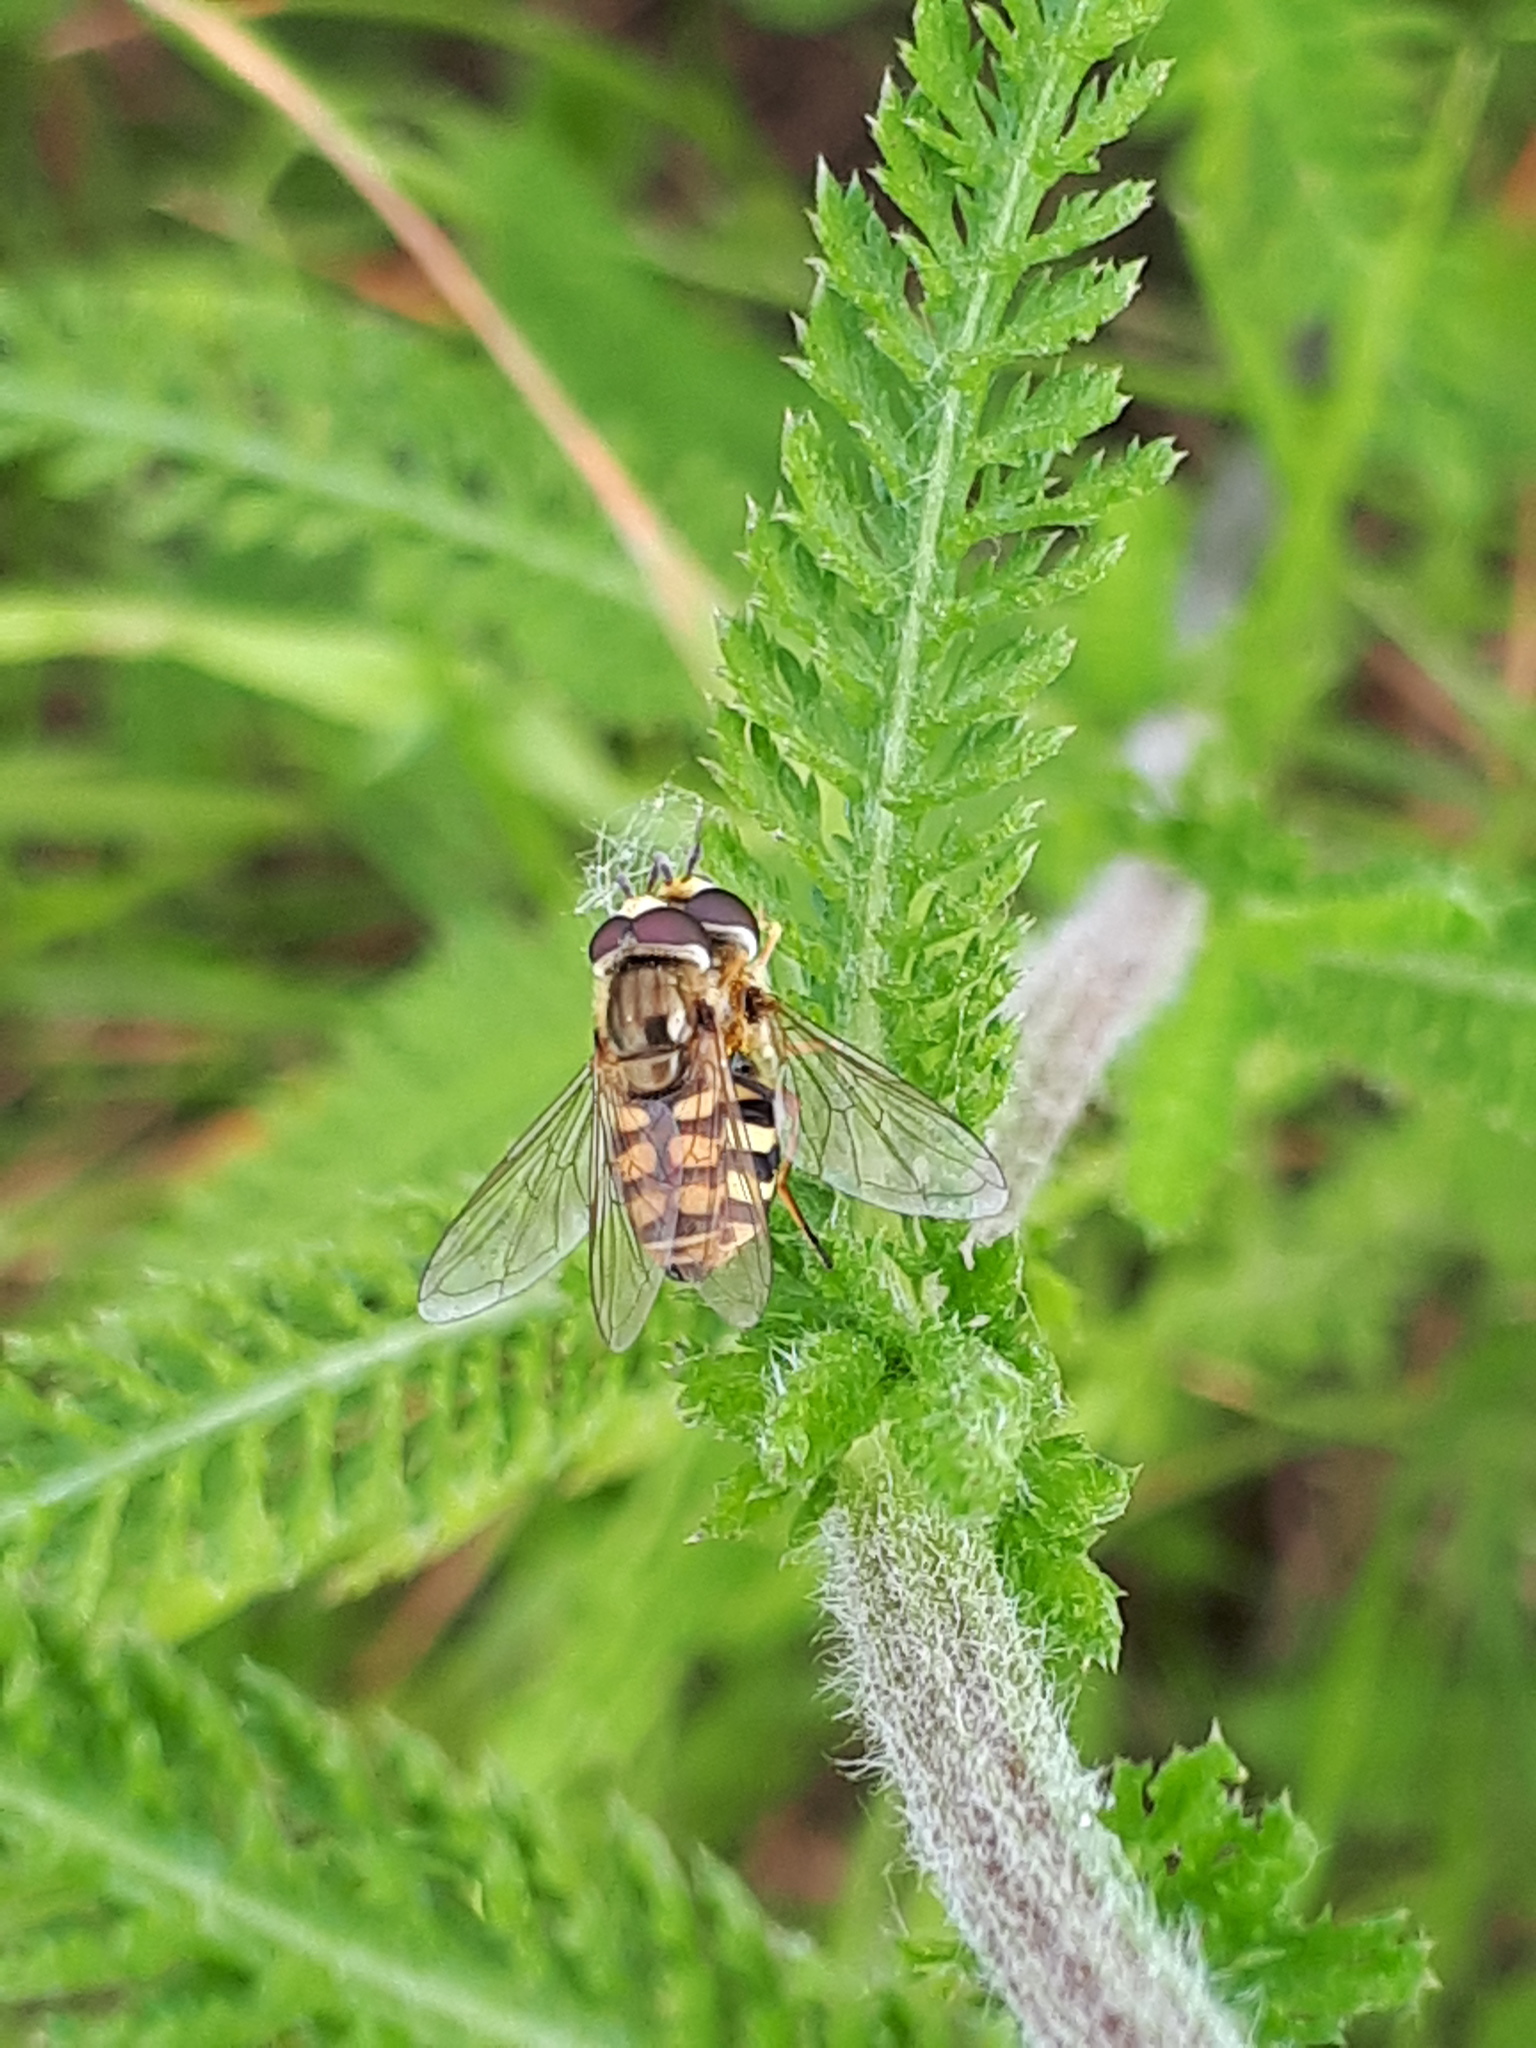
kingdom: Animalia
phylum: Arthropoda
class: Insecta
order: Diptera
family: Syrphidae
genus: Eupeodes
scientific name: Eupeodes corollae
